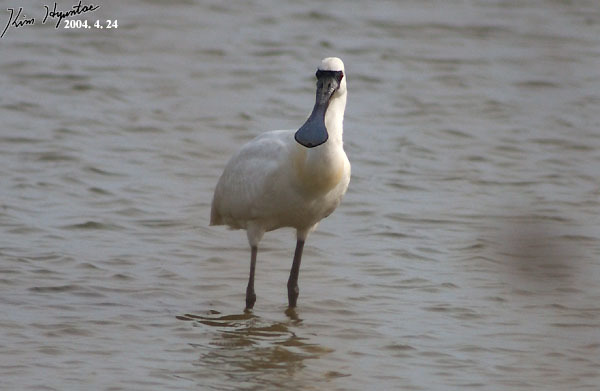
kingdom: Animalia
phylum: Chordata
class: Aves
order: Pelecaniformes
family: Threskiornithidae
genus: Platalea
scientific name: Platalea minor
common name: Black-faced spoonbill
